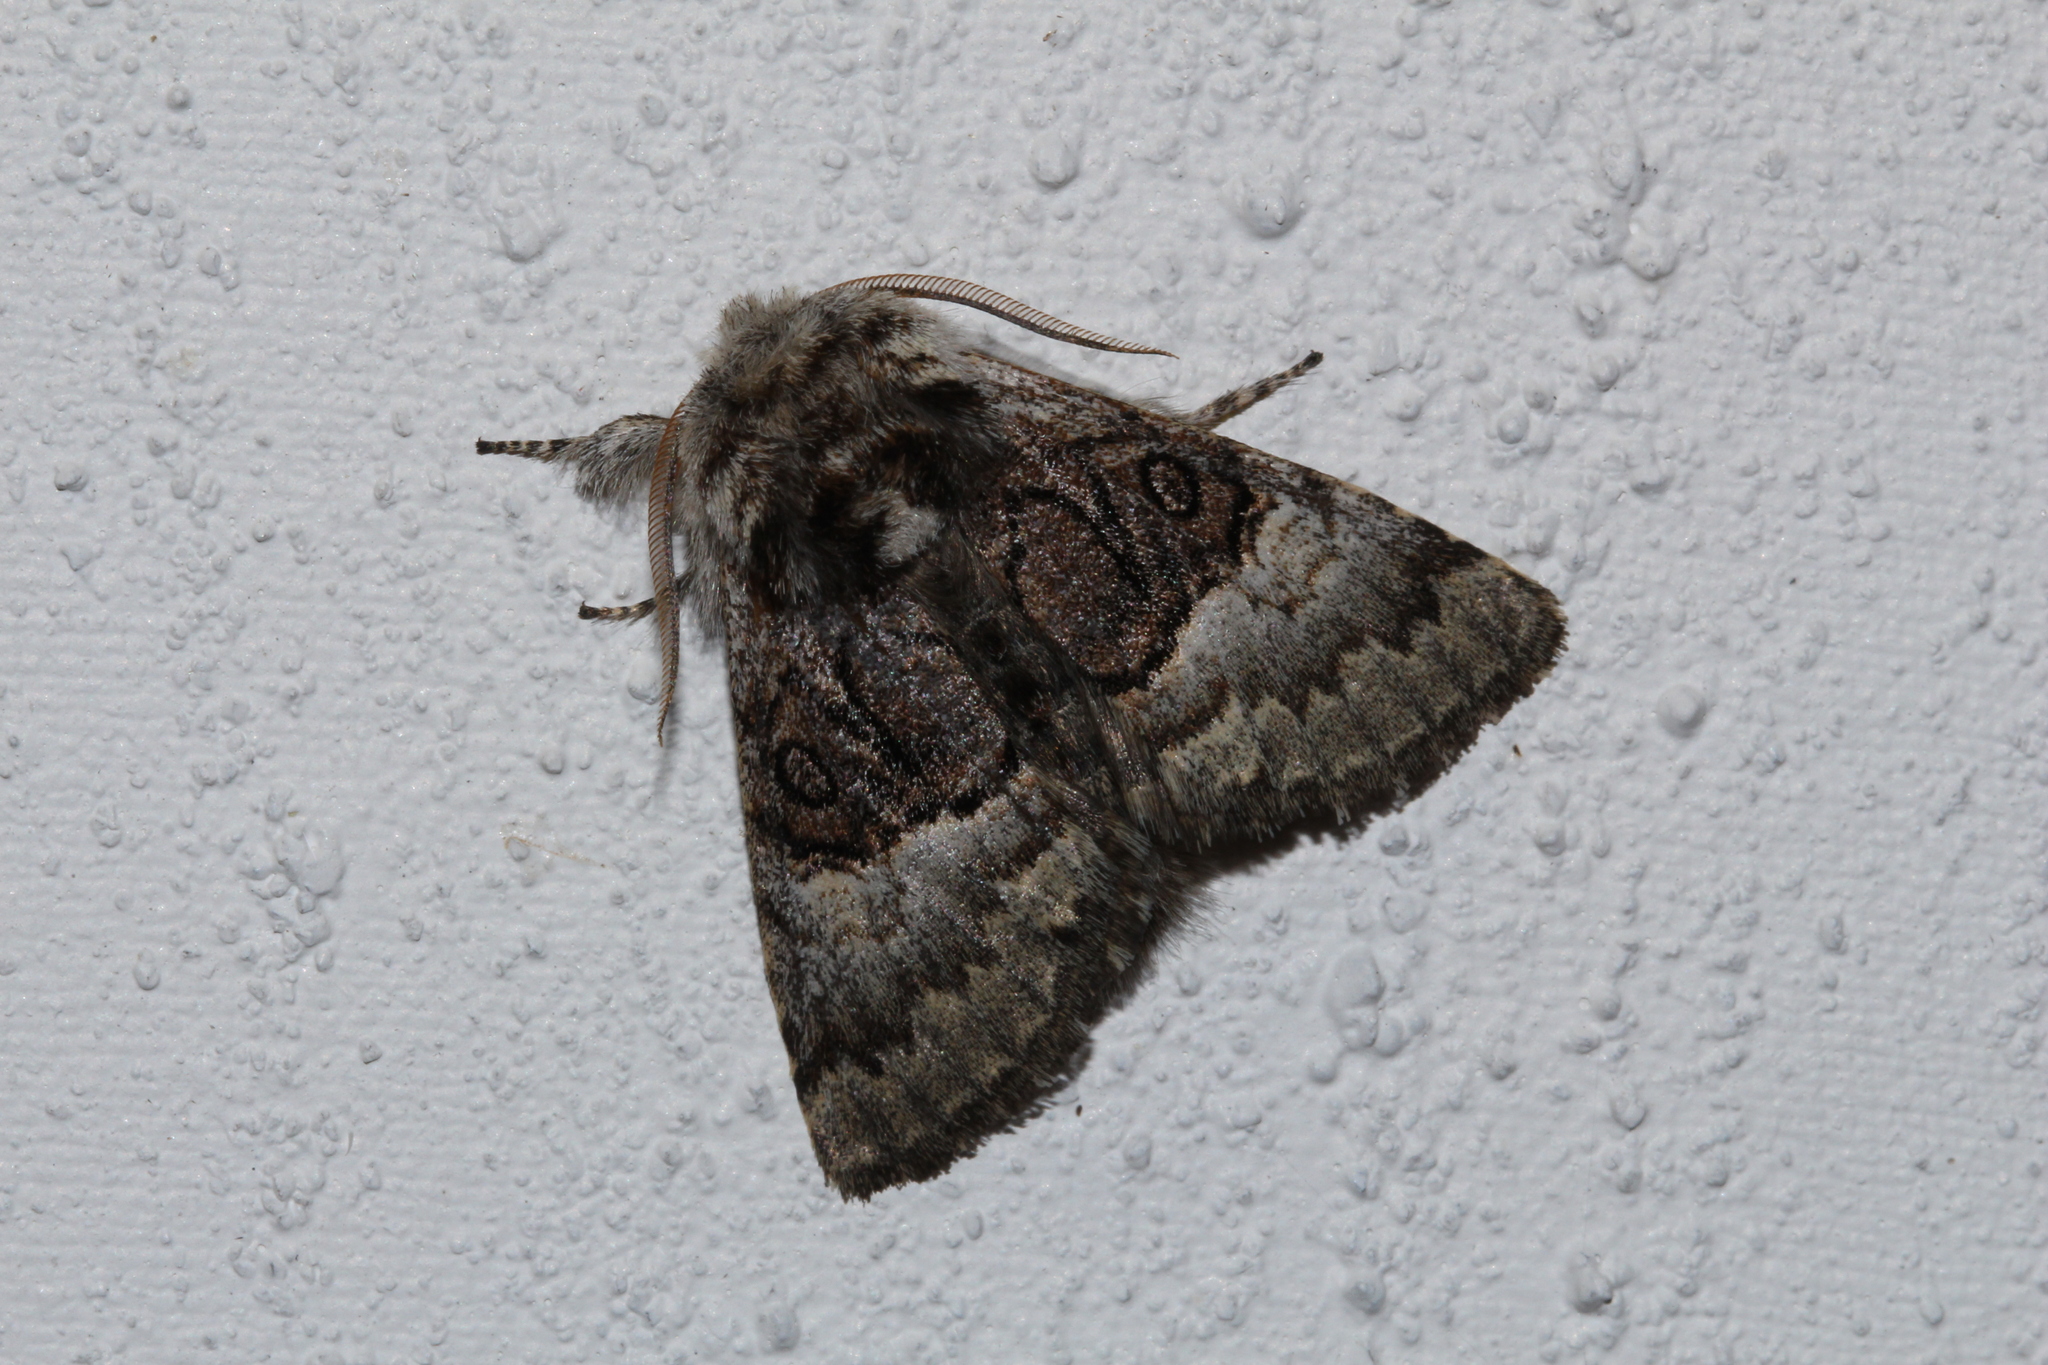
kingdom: Animalia
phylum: Arthropoda
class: Insecta
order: Lepidoptera
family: Noctuidae
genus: Colocasia
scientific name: Colocasia coryli
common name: Nut-tree tussock
